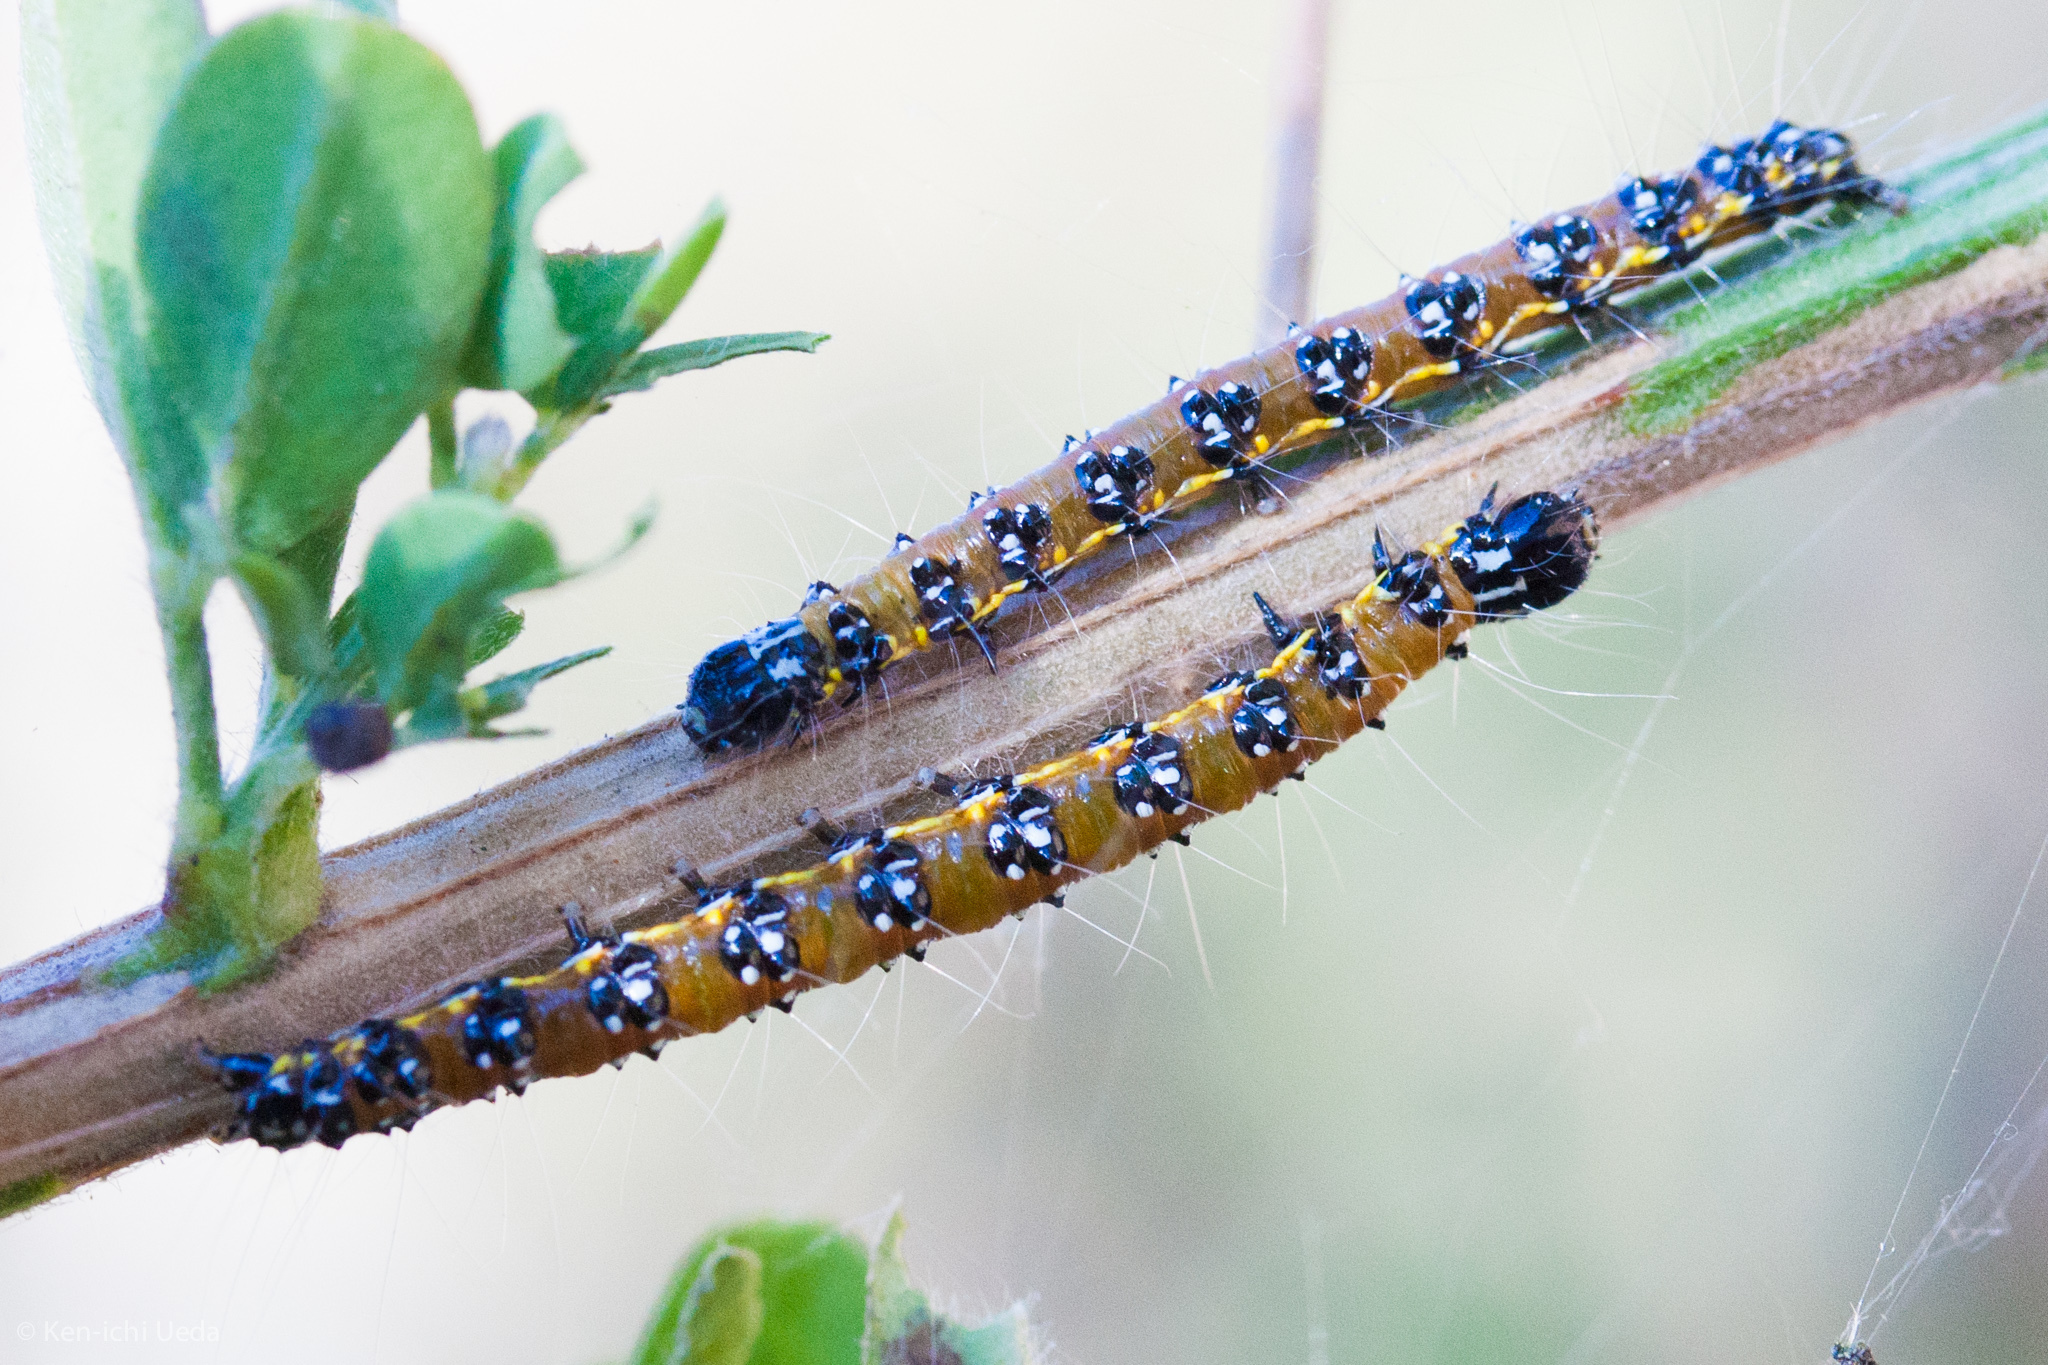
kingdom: Animalia
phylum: Arthropoda
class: Insecta
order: Lepidoptera
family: Crambidae
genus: Uresiphita
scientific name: Uresiphita reversalis
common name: Genista broom moth
